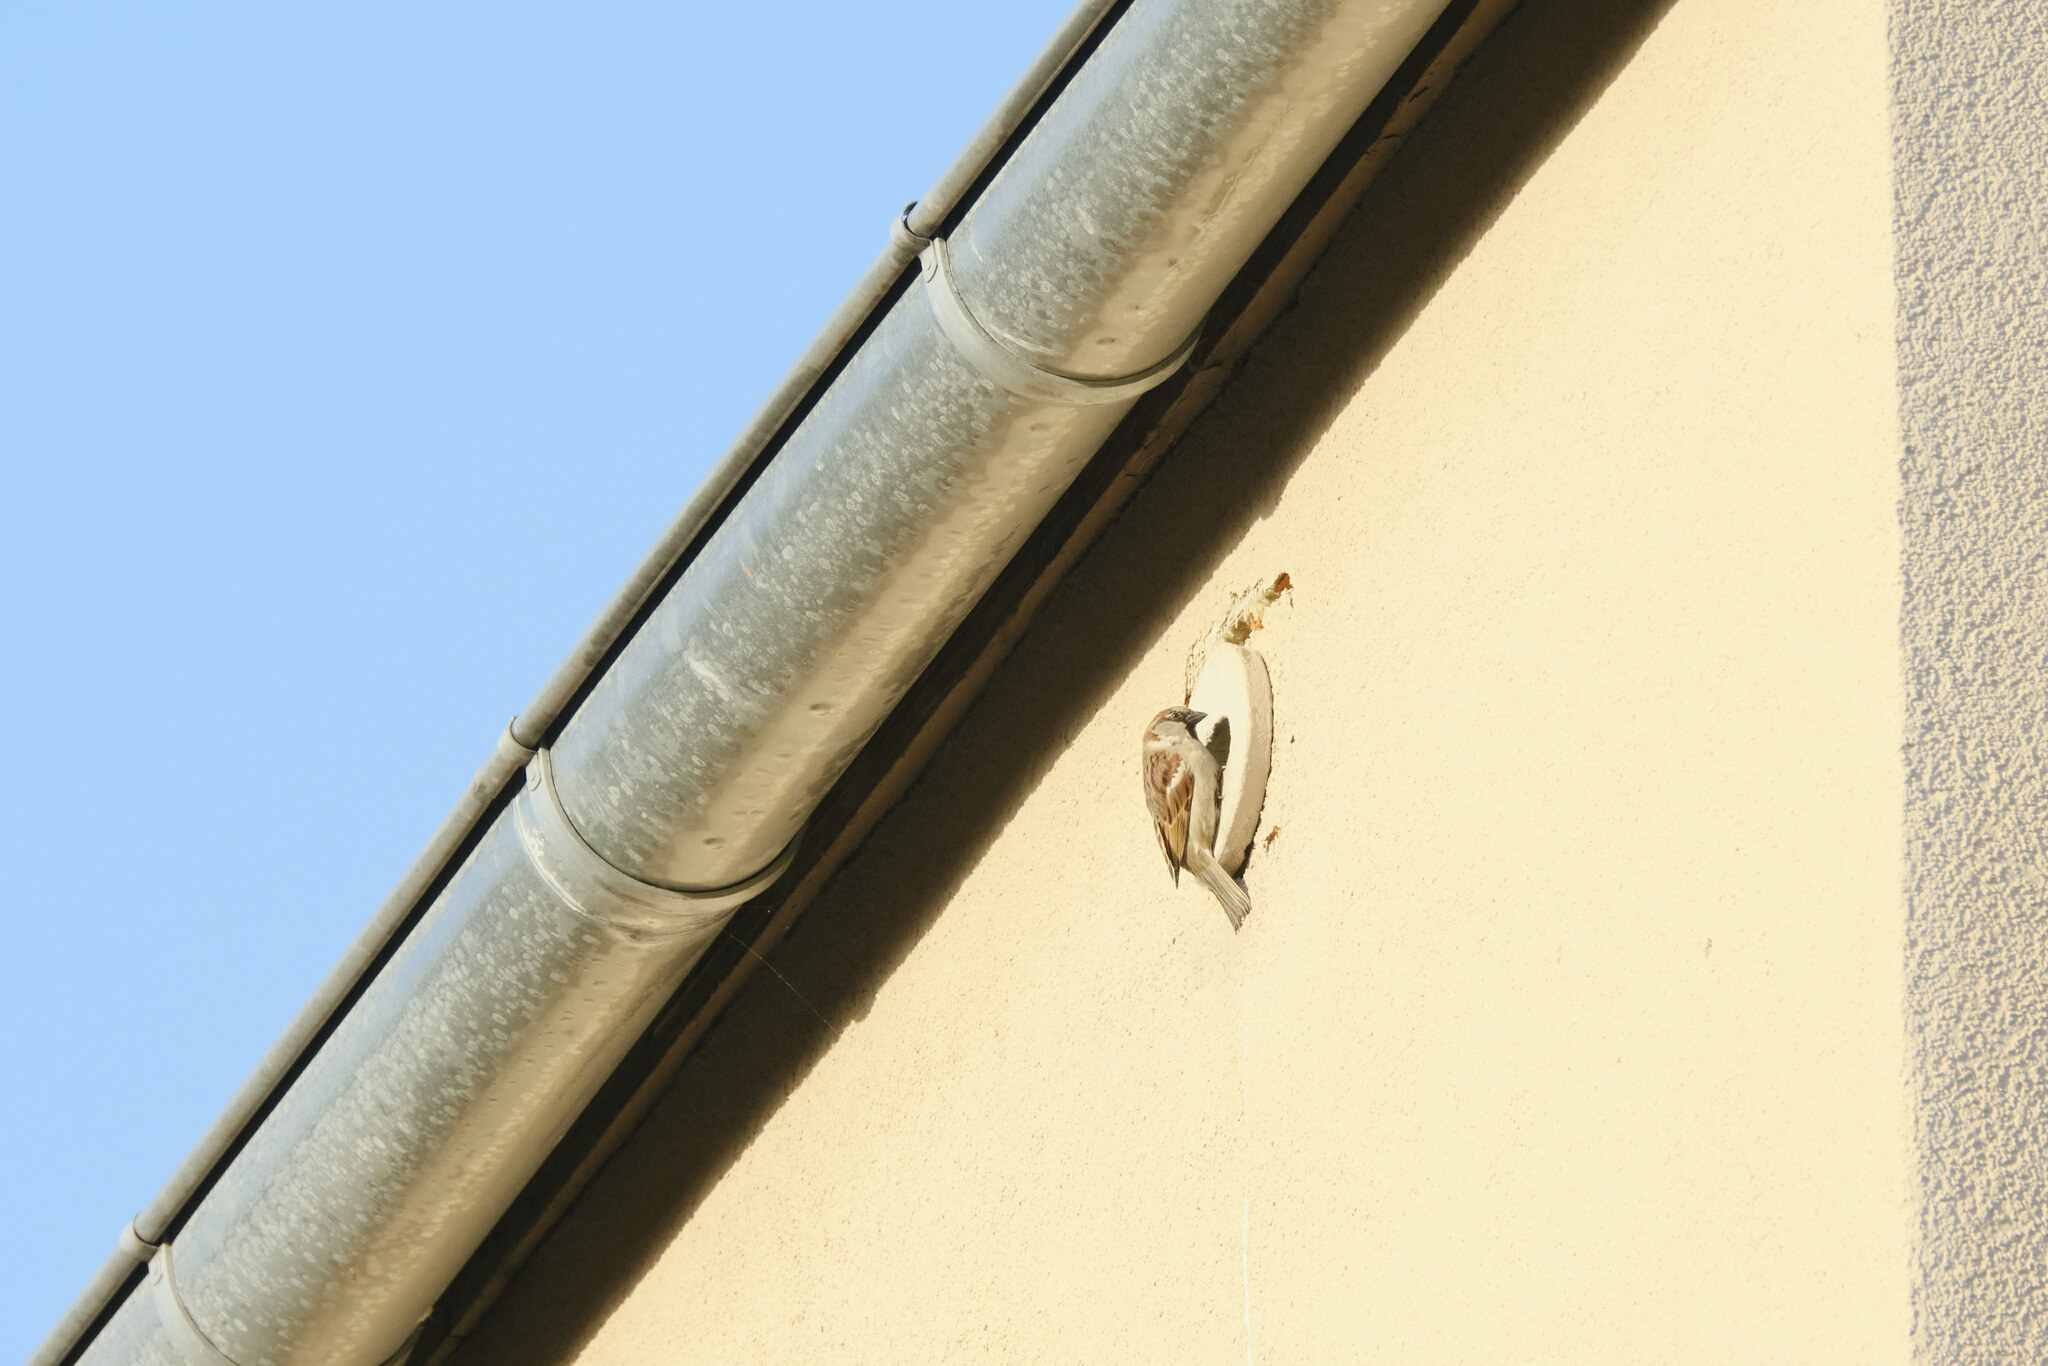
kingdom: Animalia
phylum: Chordata
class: Aves
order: Passeriformes
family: Passeridae
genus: Passer
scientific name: Passer domesticus
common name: House sparrow
